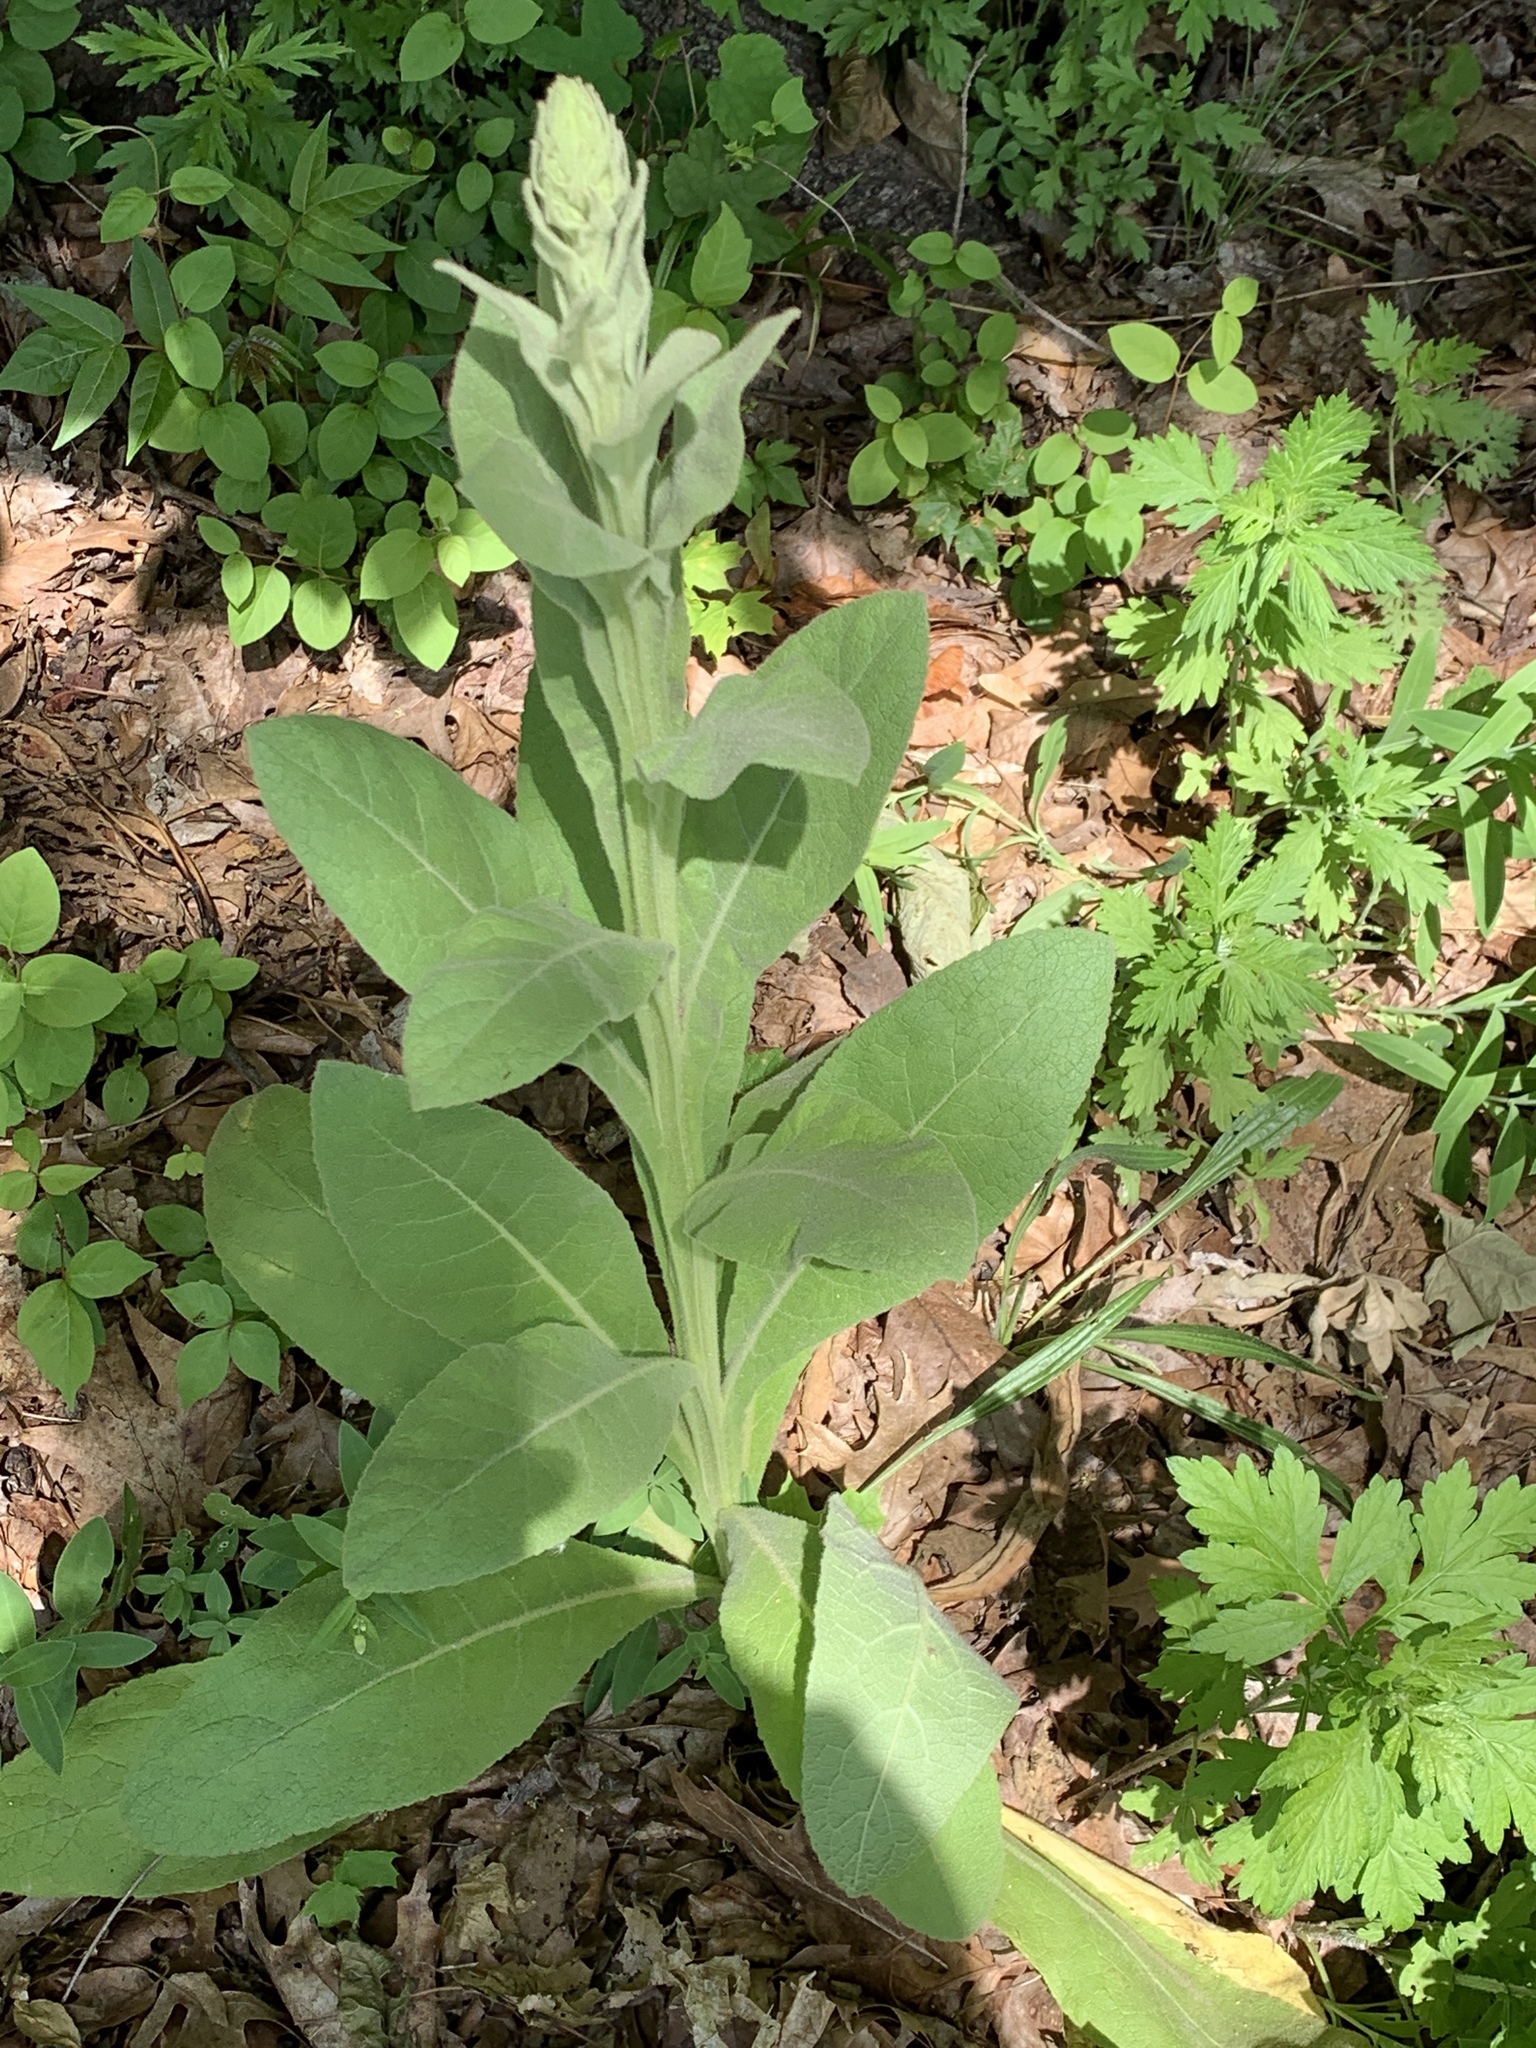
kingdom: Plantae
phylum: Tracheophyta
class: Magnoliopsida
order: Lamiales
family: Scrophulariaceae
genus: Verbascum
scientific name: Verbascum thapsus
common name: Common mullein
